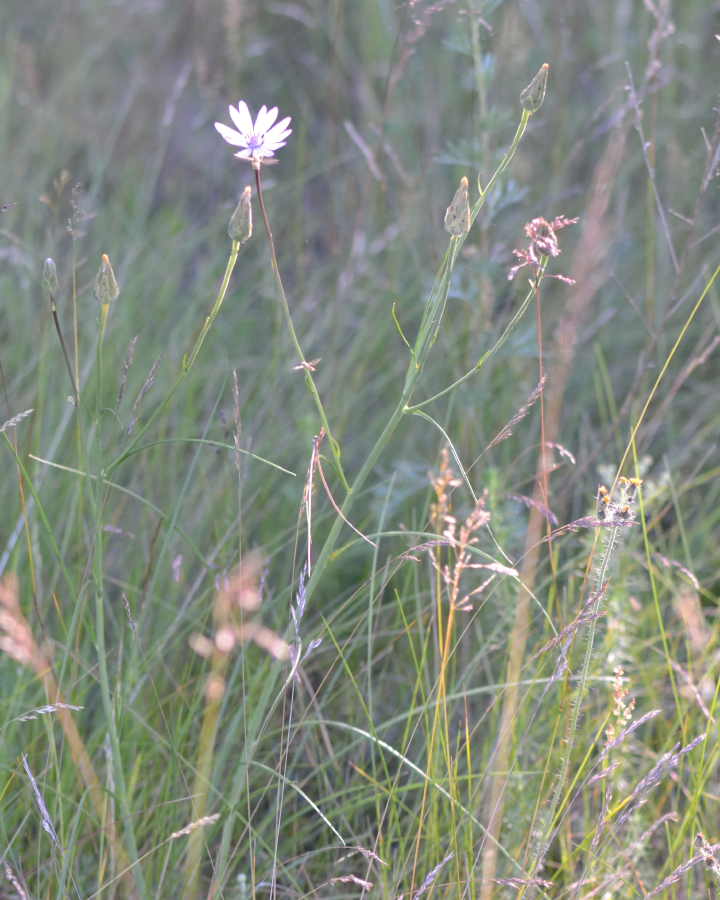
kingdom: Plantae
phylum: Tracheophyta
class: Magnoliopsida
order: Asterales
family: Asteraceae
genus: Scorzonera
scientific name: Scorzonera purpurea
